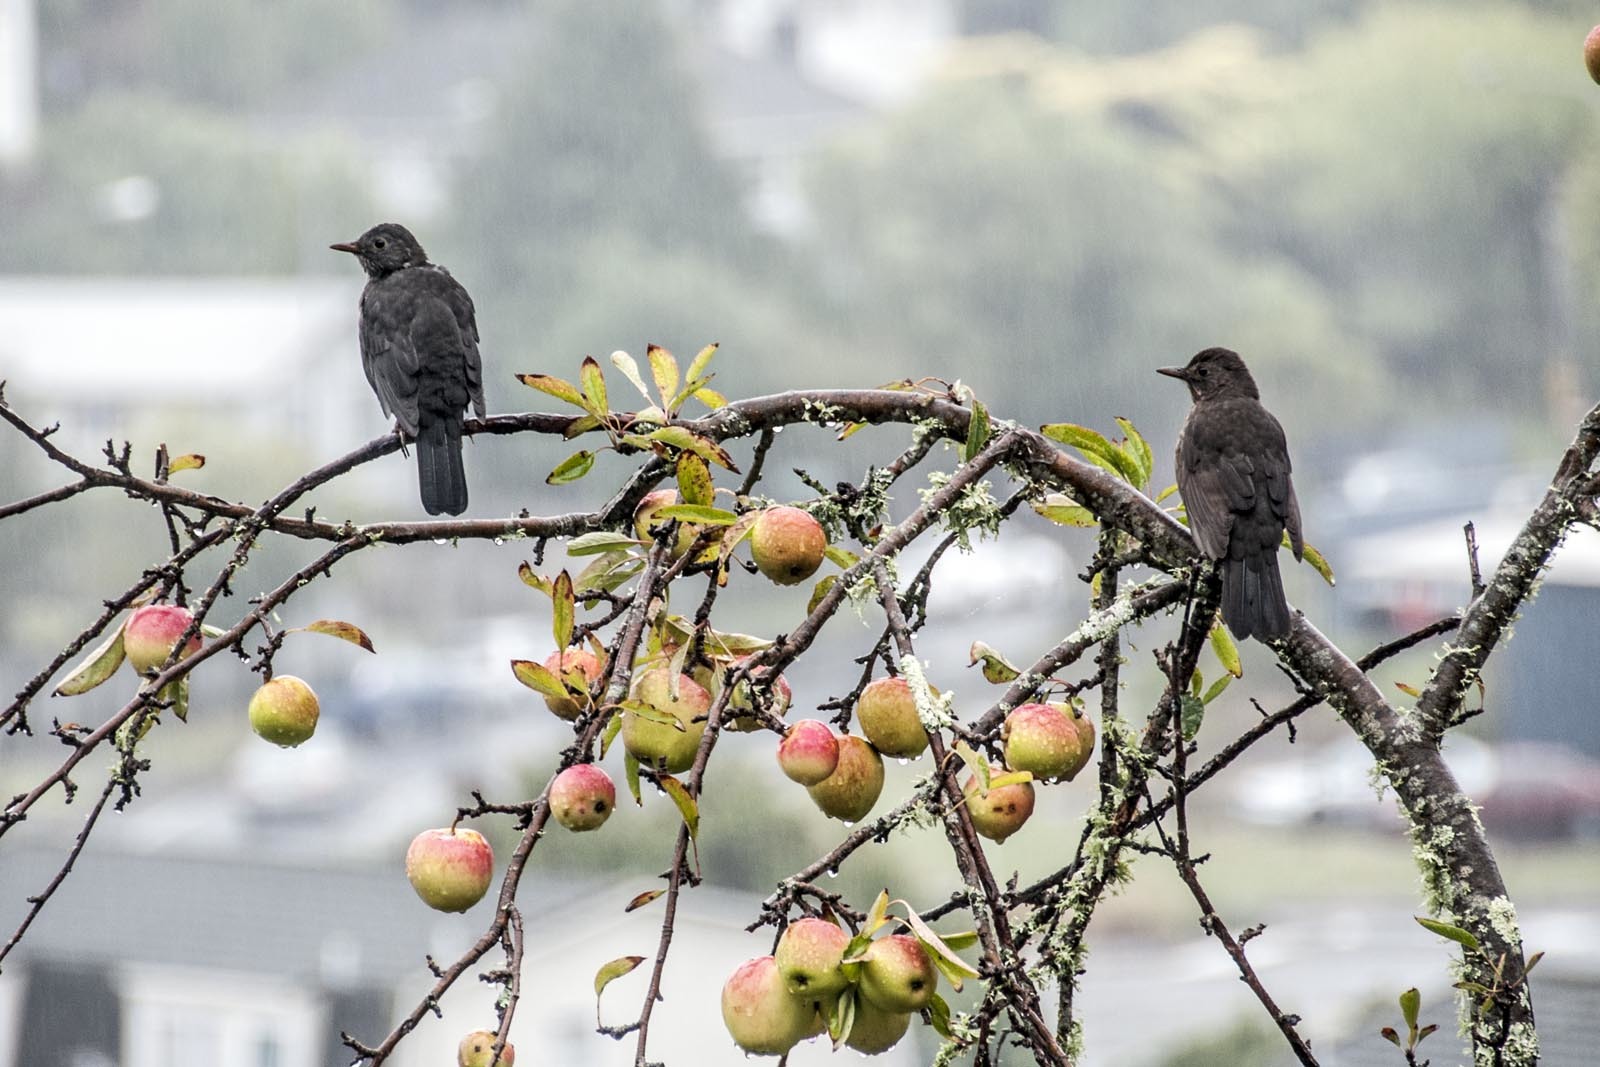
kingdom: Animalia
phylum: Chordata
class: Aves
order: Passeriformes
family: Turdidae
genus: Turdus
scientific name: Turdus merula
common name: Common blackbird
